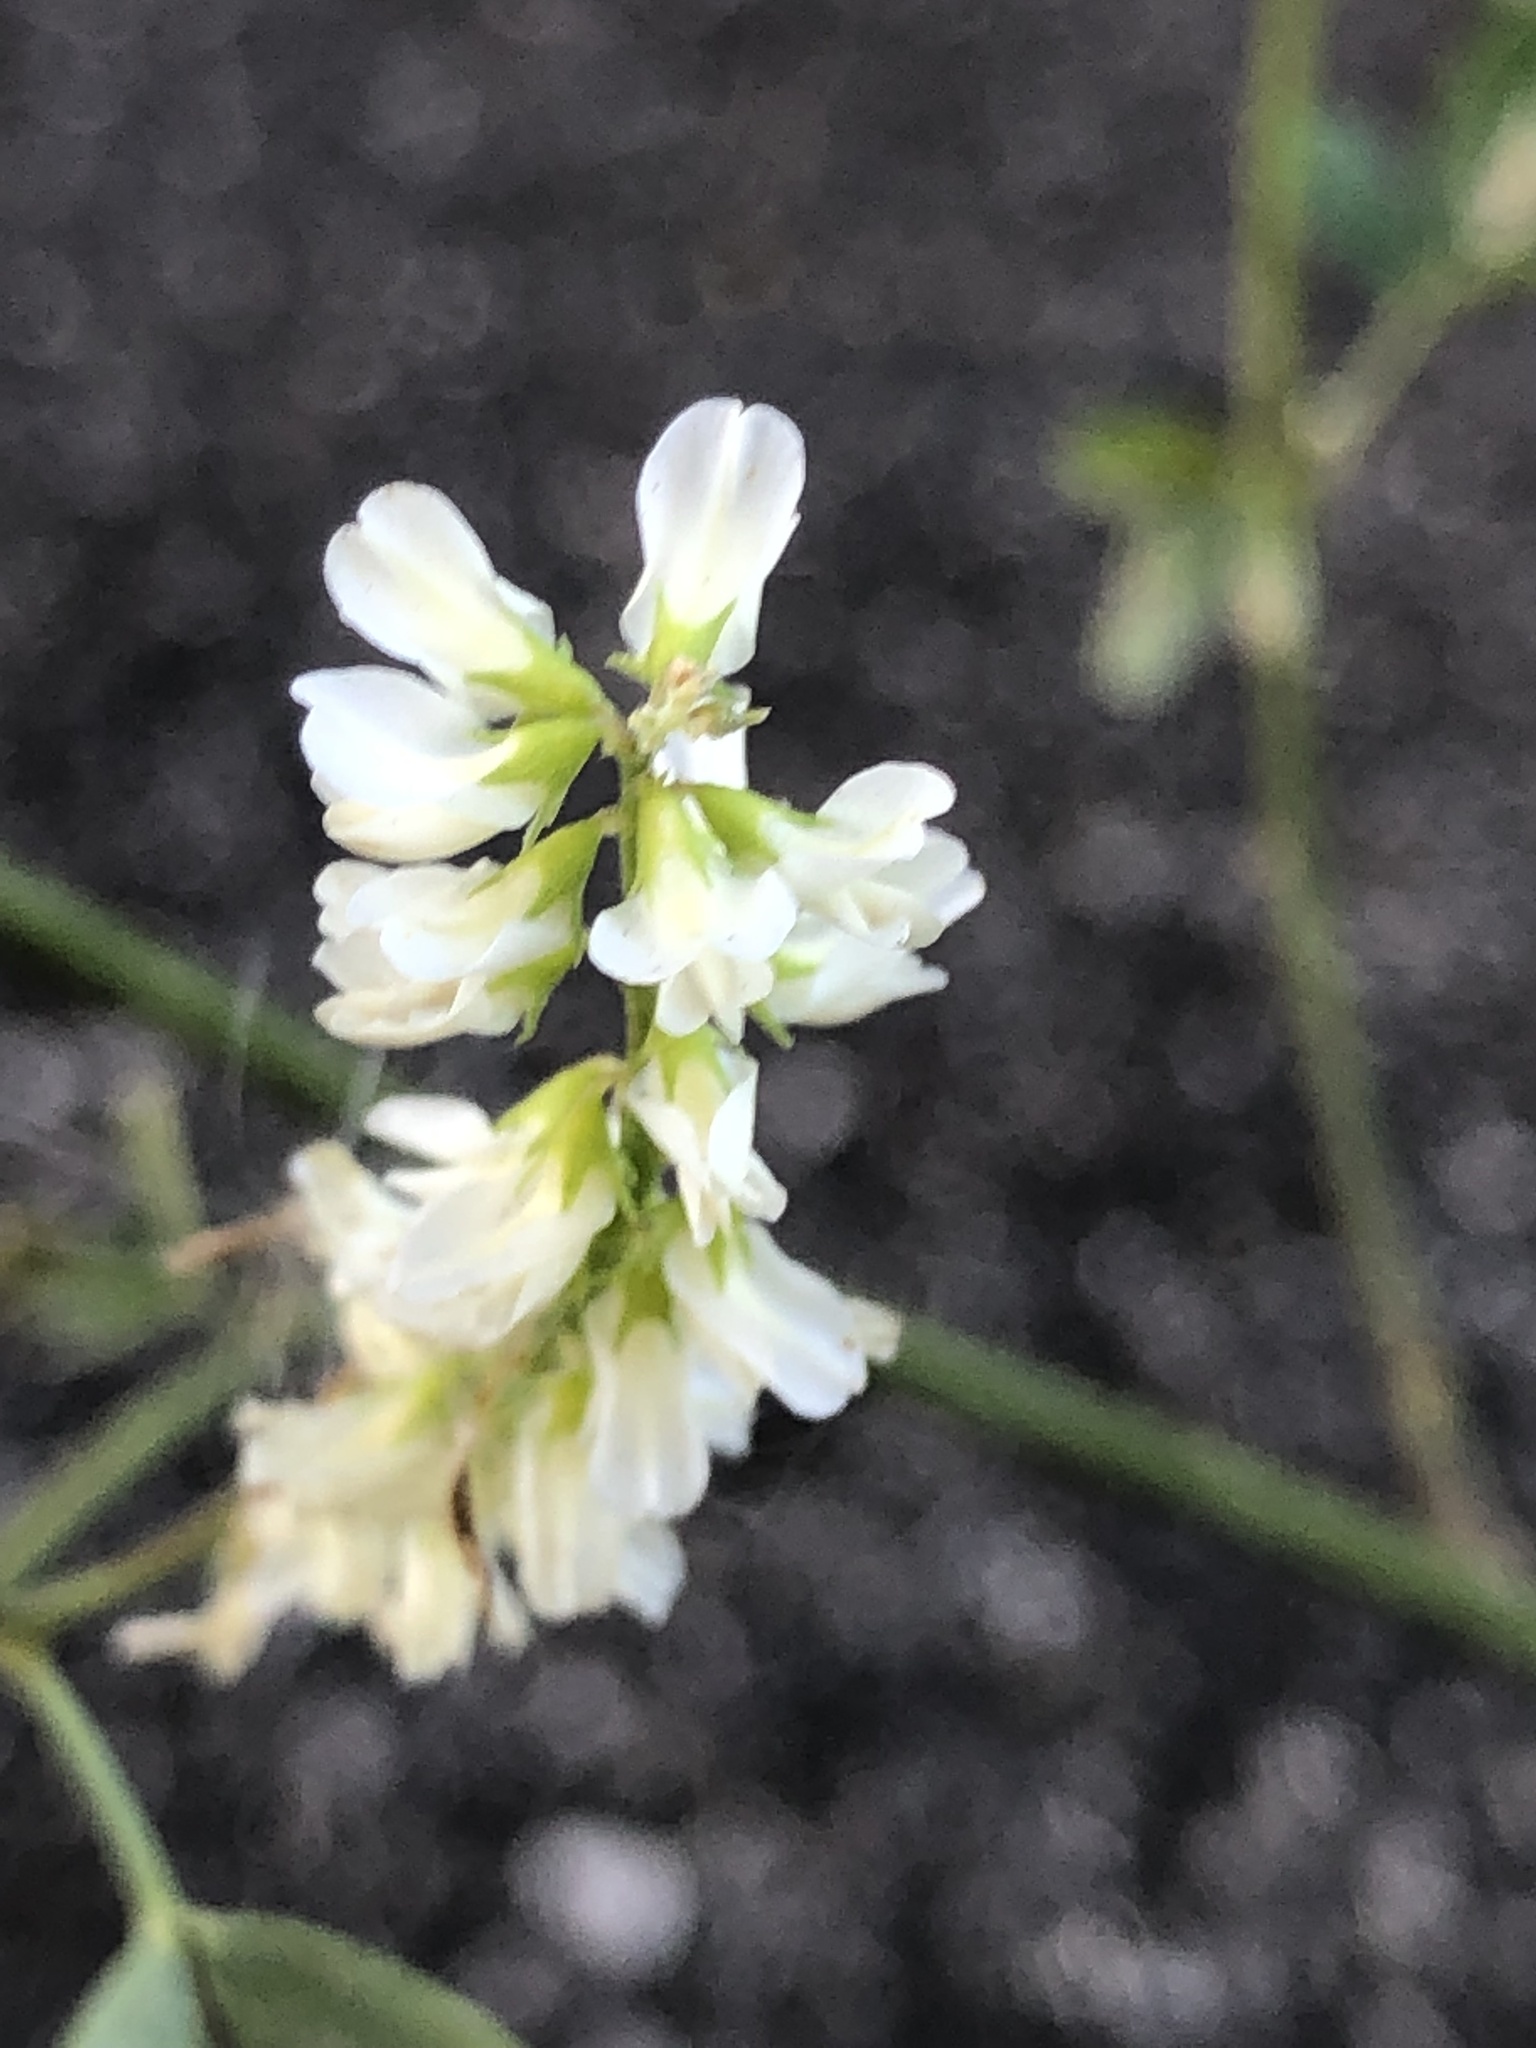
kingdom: Plantae
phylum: Tracheophyta
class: Magnoliopsida
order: Fabales
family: Fabaceae
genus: Melilotus
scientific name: Melilotus albus
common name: White melilot
